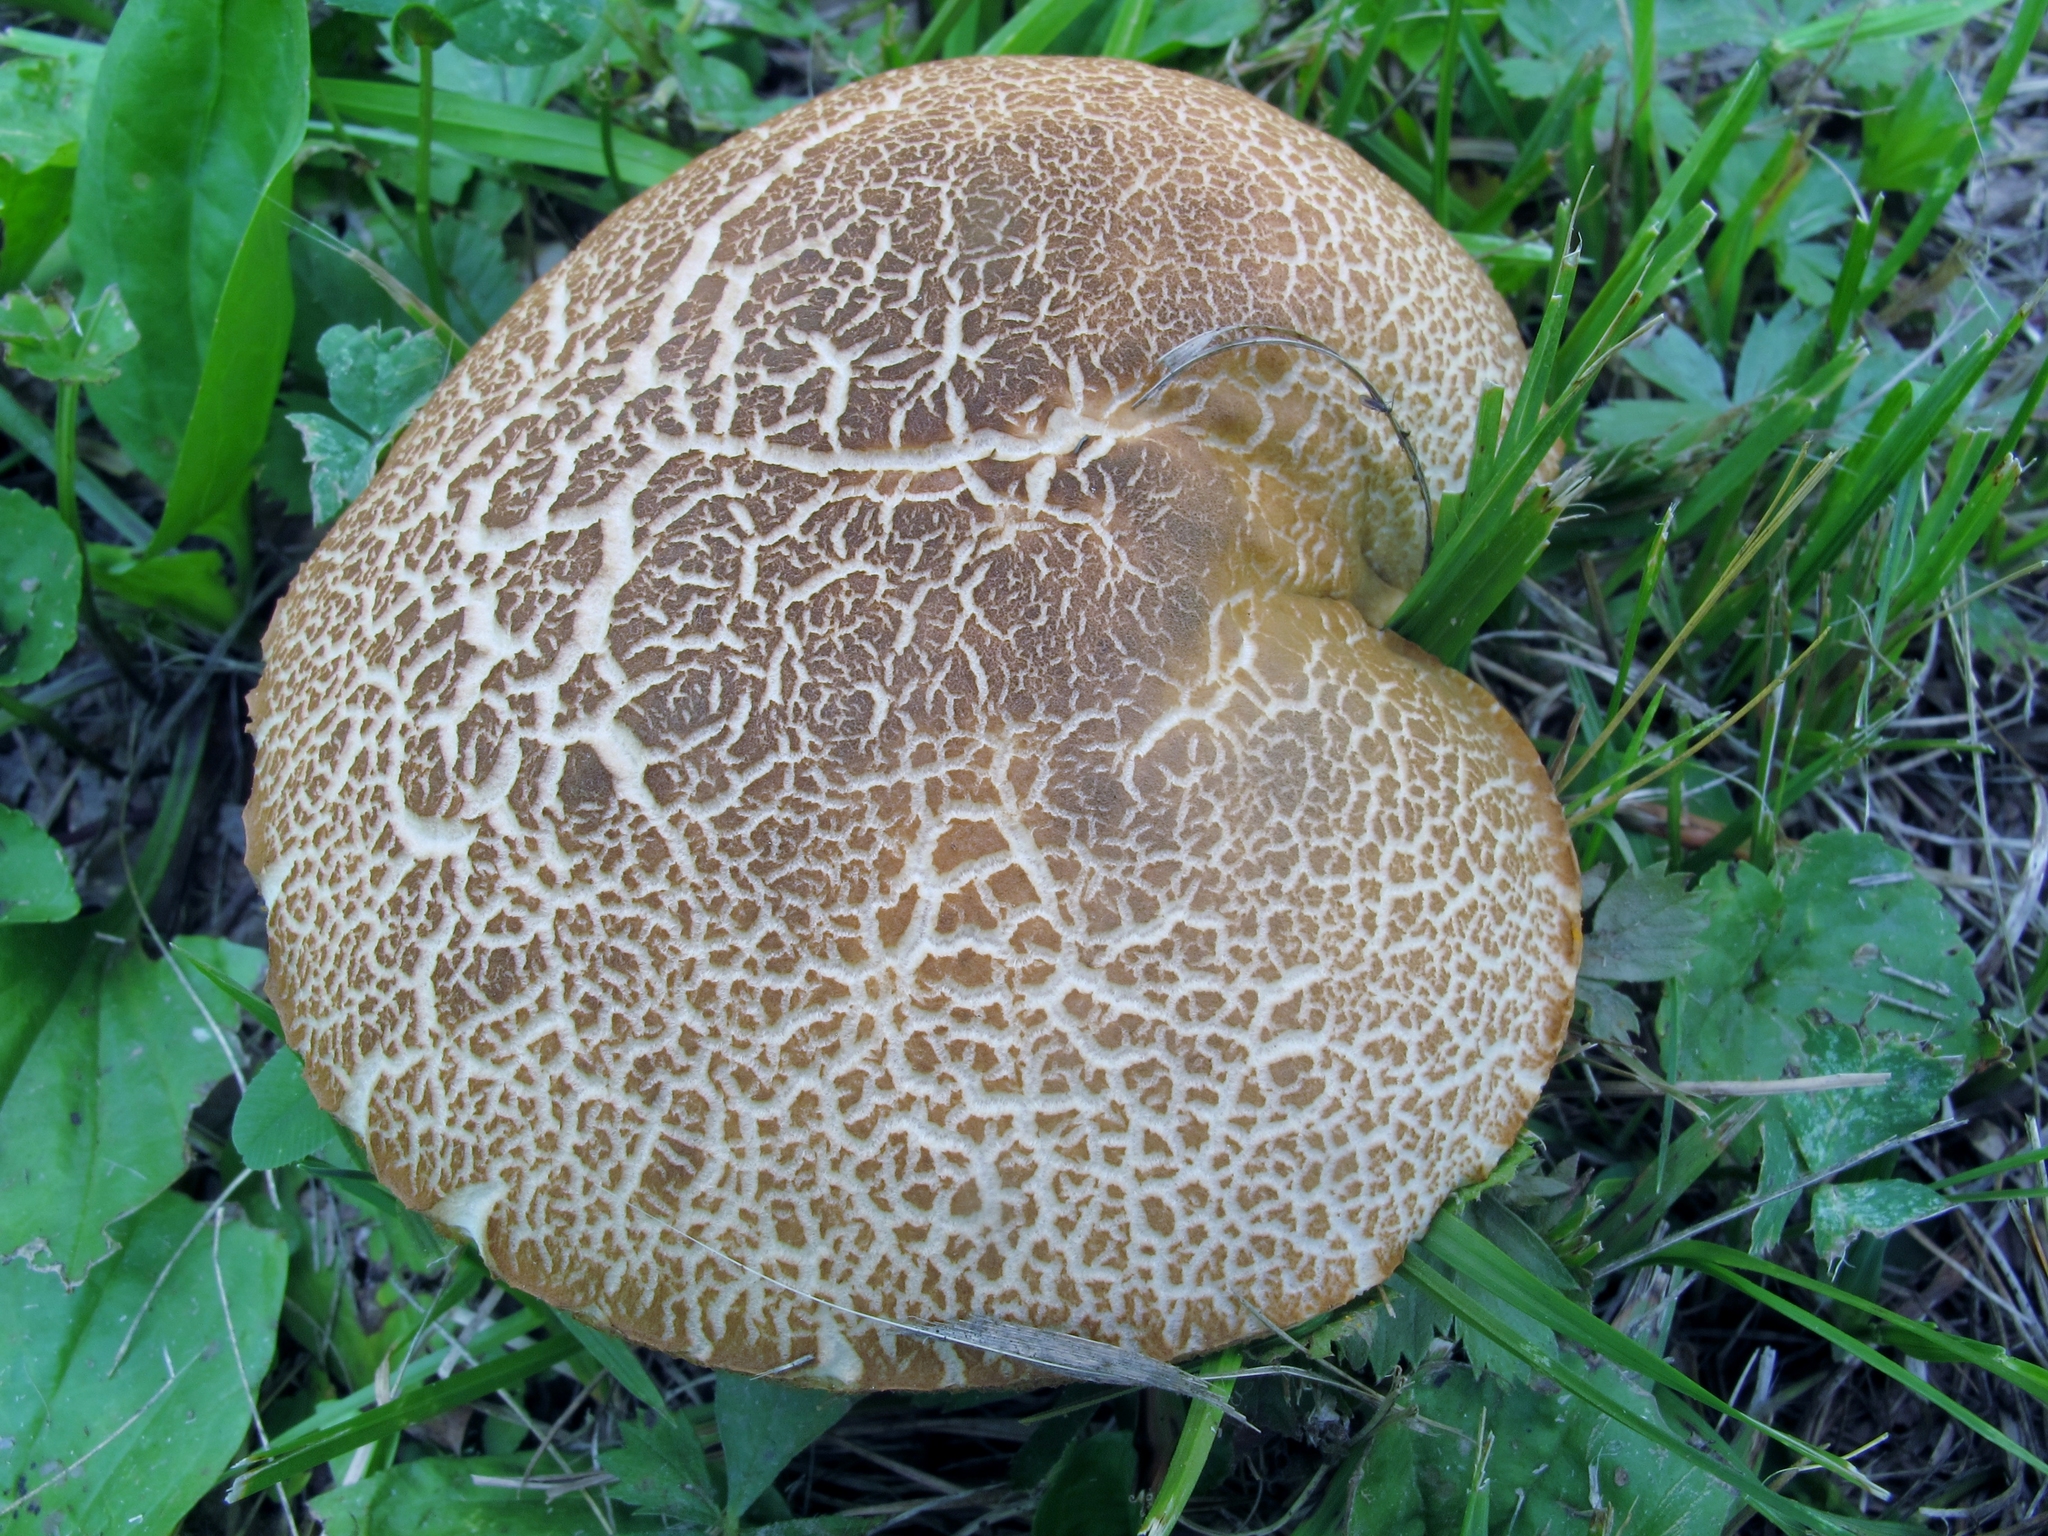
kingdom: Fungi
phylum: Basidiomycota
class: Agaricomycetes
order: Boletales
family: Boletaceae
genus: Leccinellum
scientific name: Leccinellum rugosiceps
